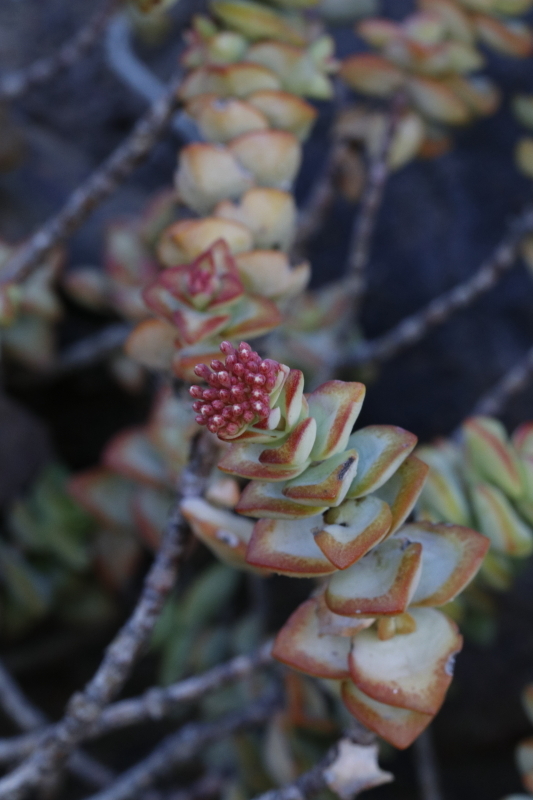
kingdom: Plantae
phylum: Tracheophyta
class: Magnoliopsida
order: Saxifragales
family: Crassulaceae
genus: Crassula
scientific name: Crassula rupestris
